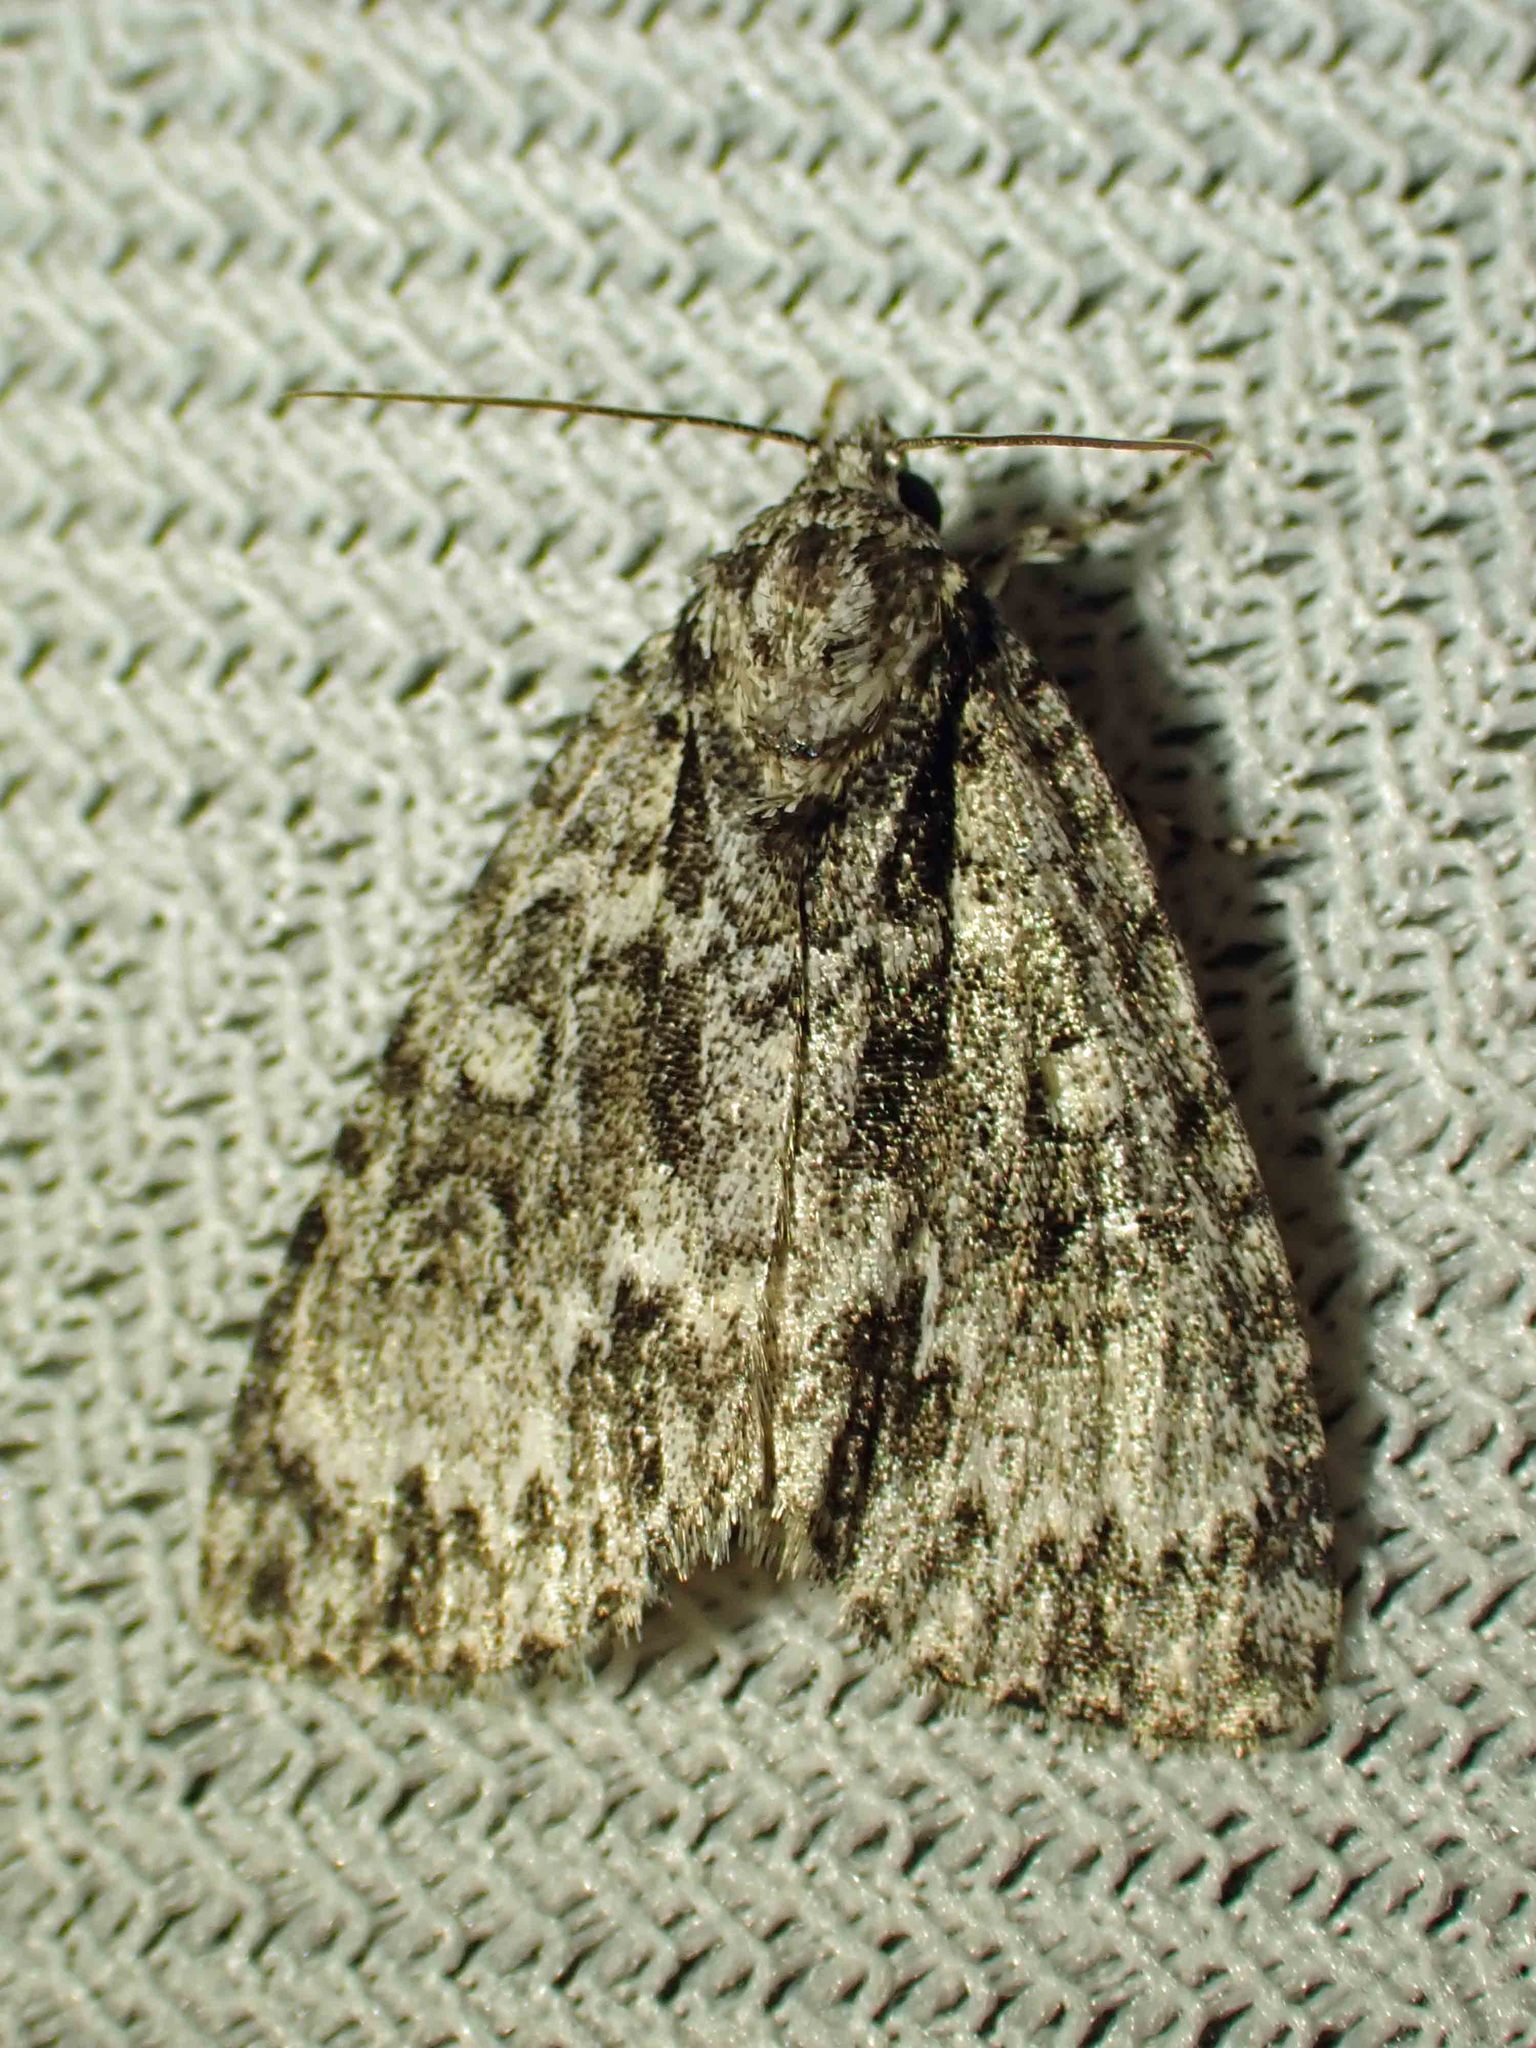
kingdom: Animalia
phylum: Arthropoda
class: Insecta
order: Lepidoptera
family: Noctuidae
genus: Acronicta
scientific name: Acronicta fragilis
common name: Fragile dagger
